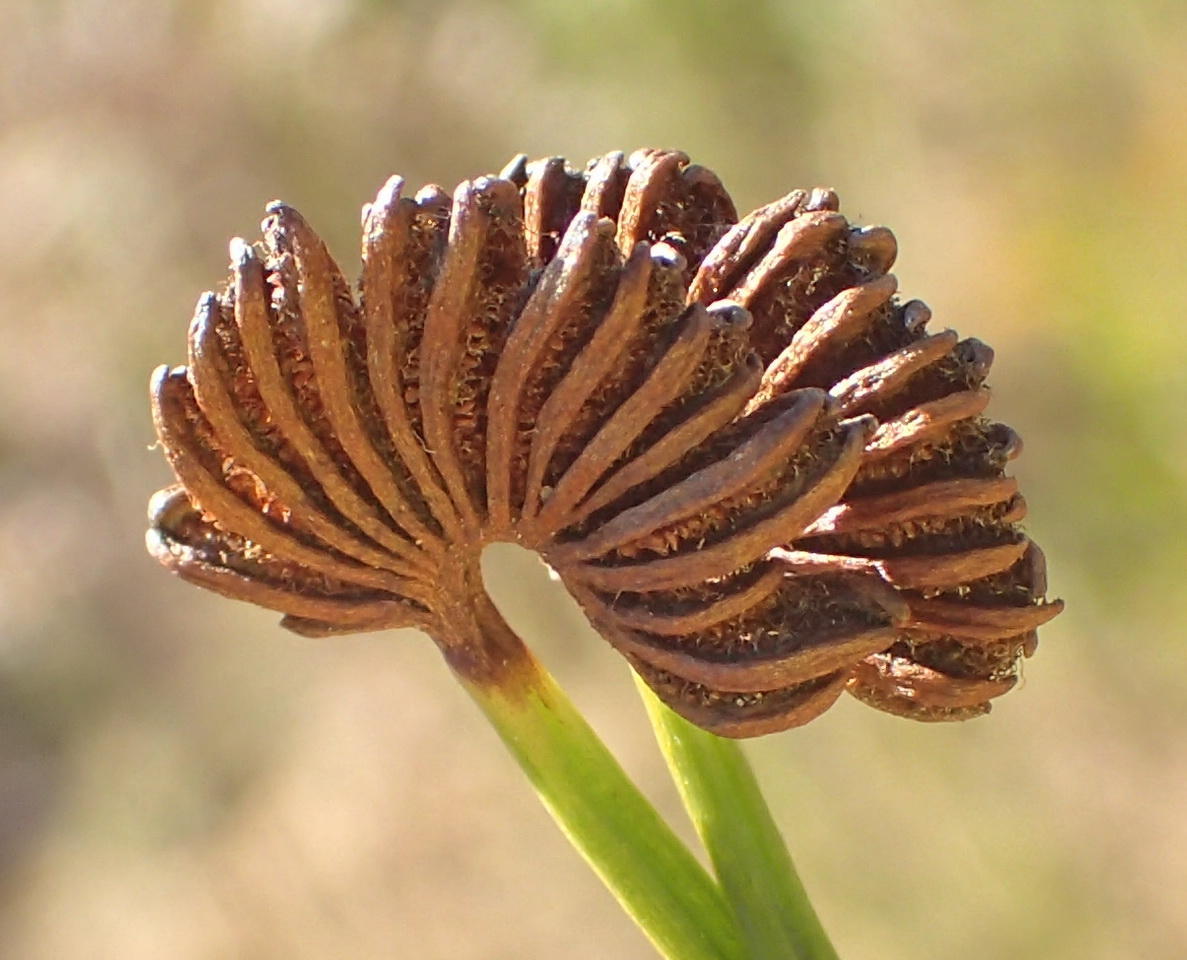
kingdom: Plantae
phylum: Tracheophyta
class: Polypodiopsida
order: Schizaeales
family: Schizaeaceae
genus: Schizaea
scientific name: Schizaea pectinata
